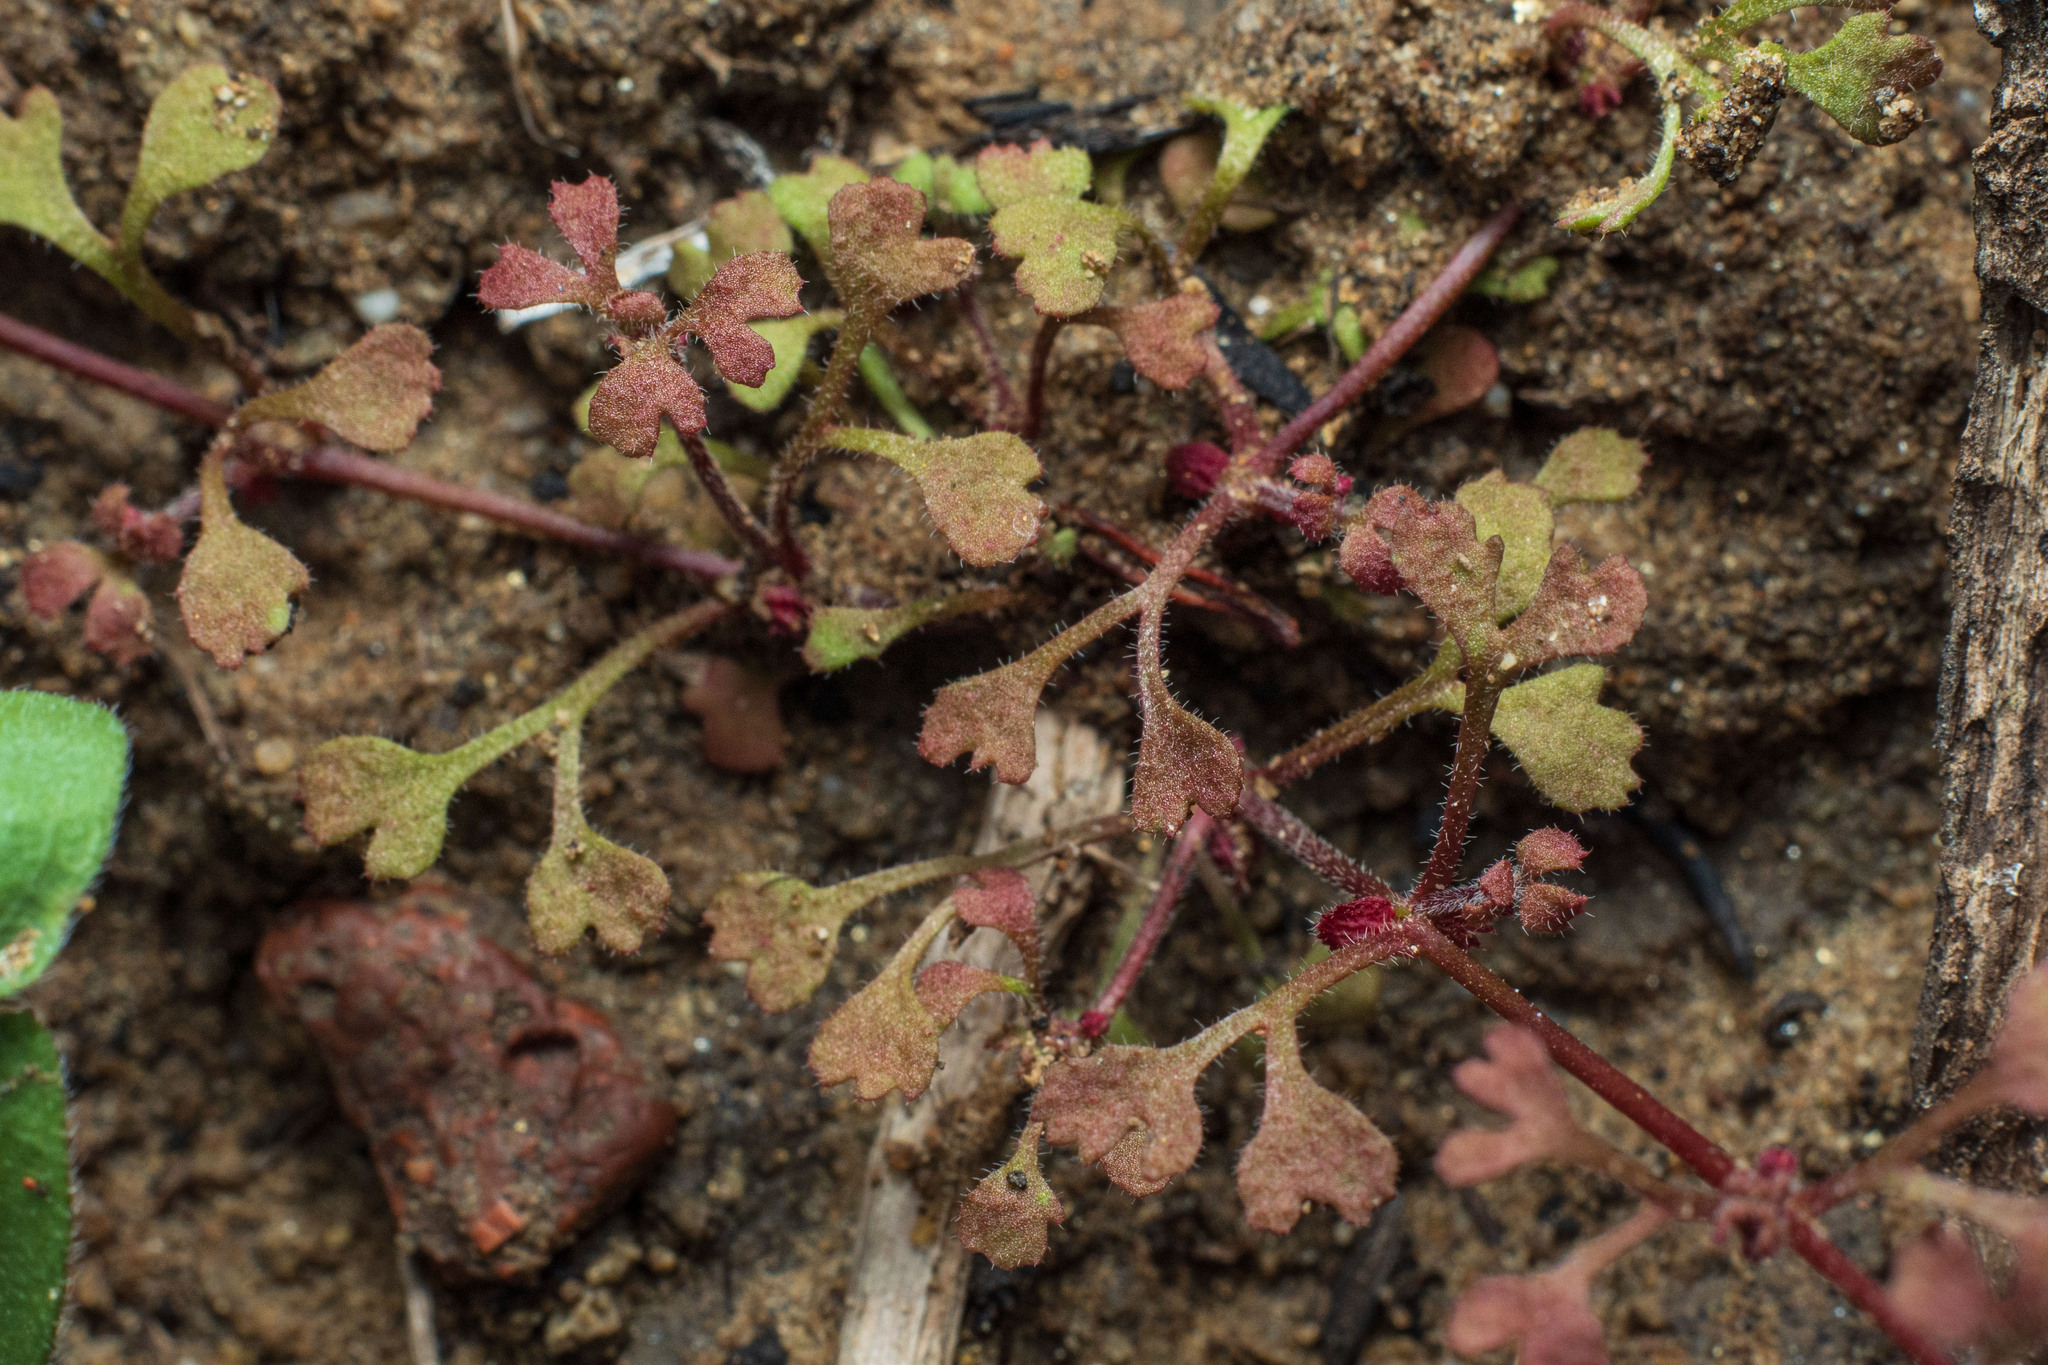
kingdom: Plantae
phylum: Tracheophyta
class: Magnoliopsida
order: Caryophyllales
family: Polygonaceae
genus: Pterostegia
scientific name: Pterostegia drymarioides
